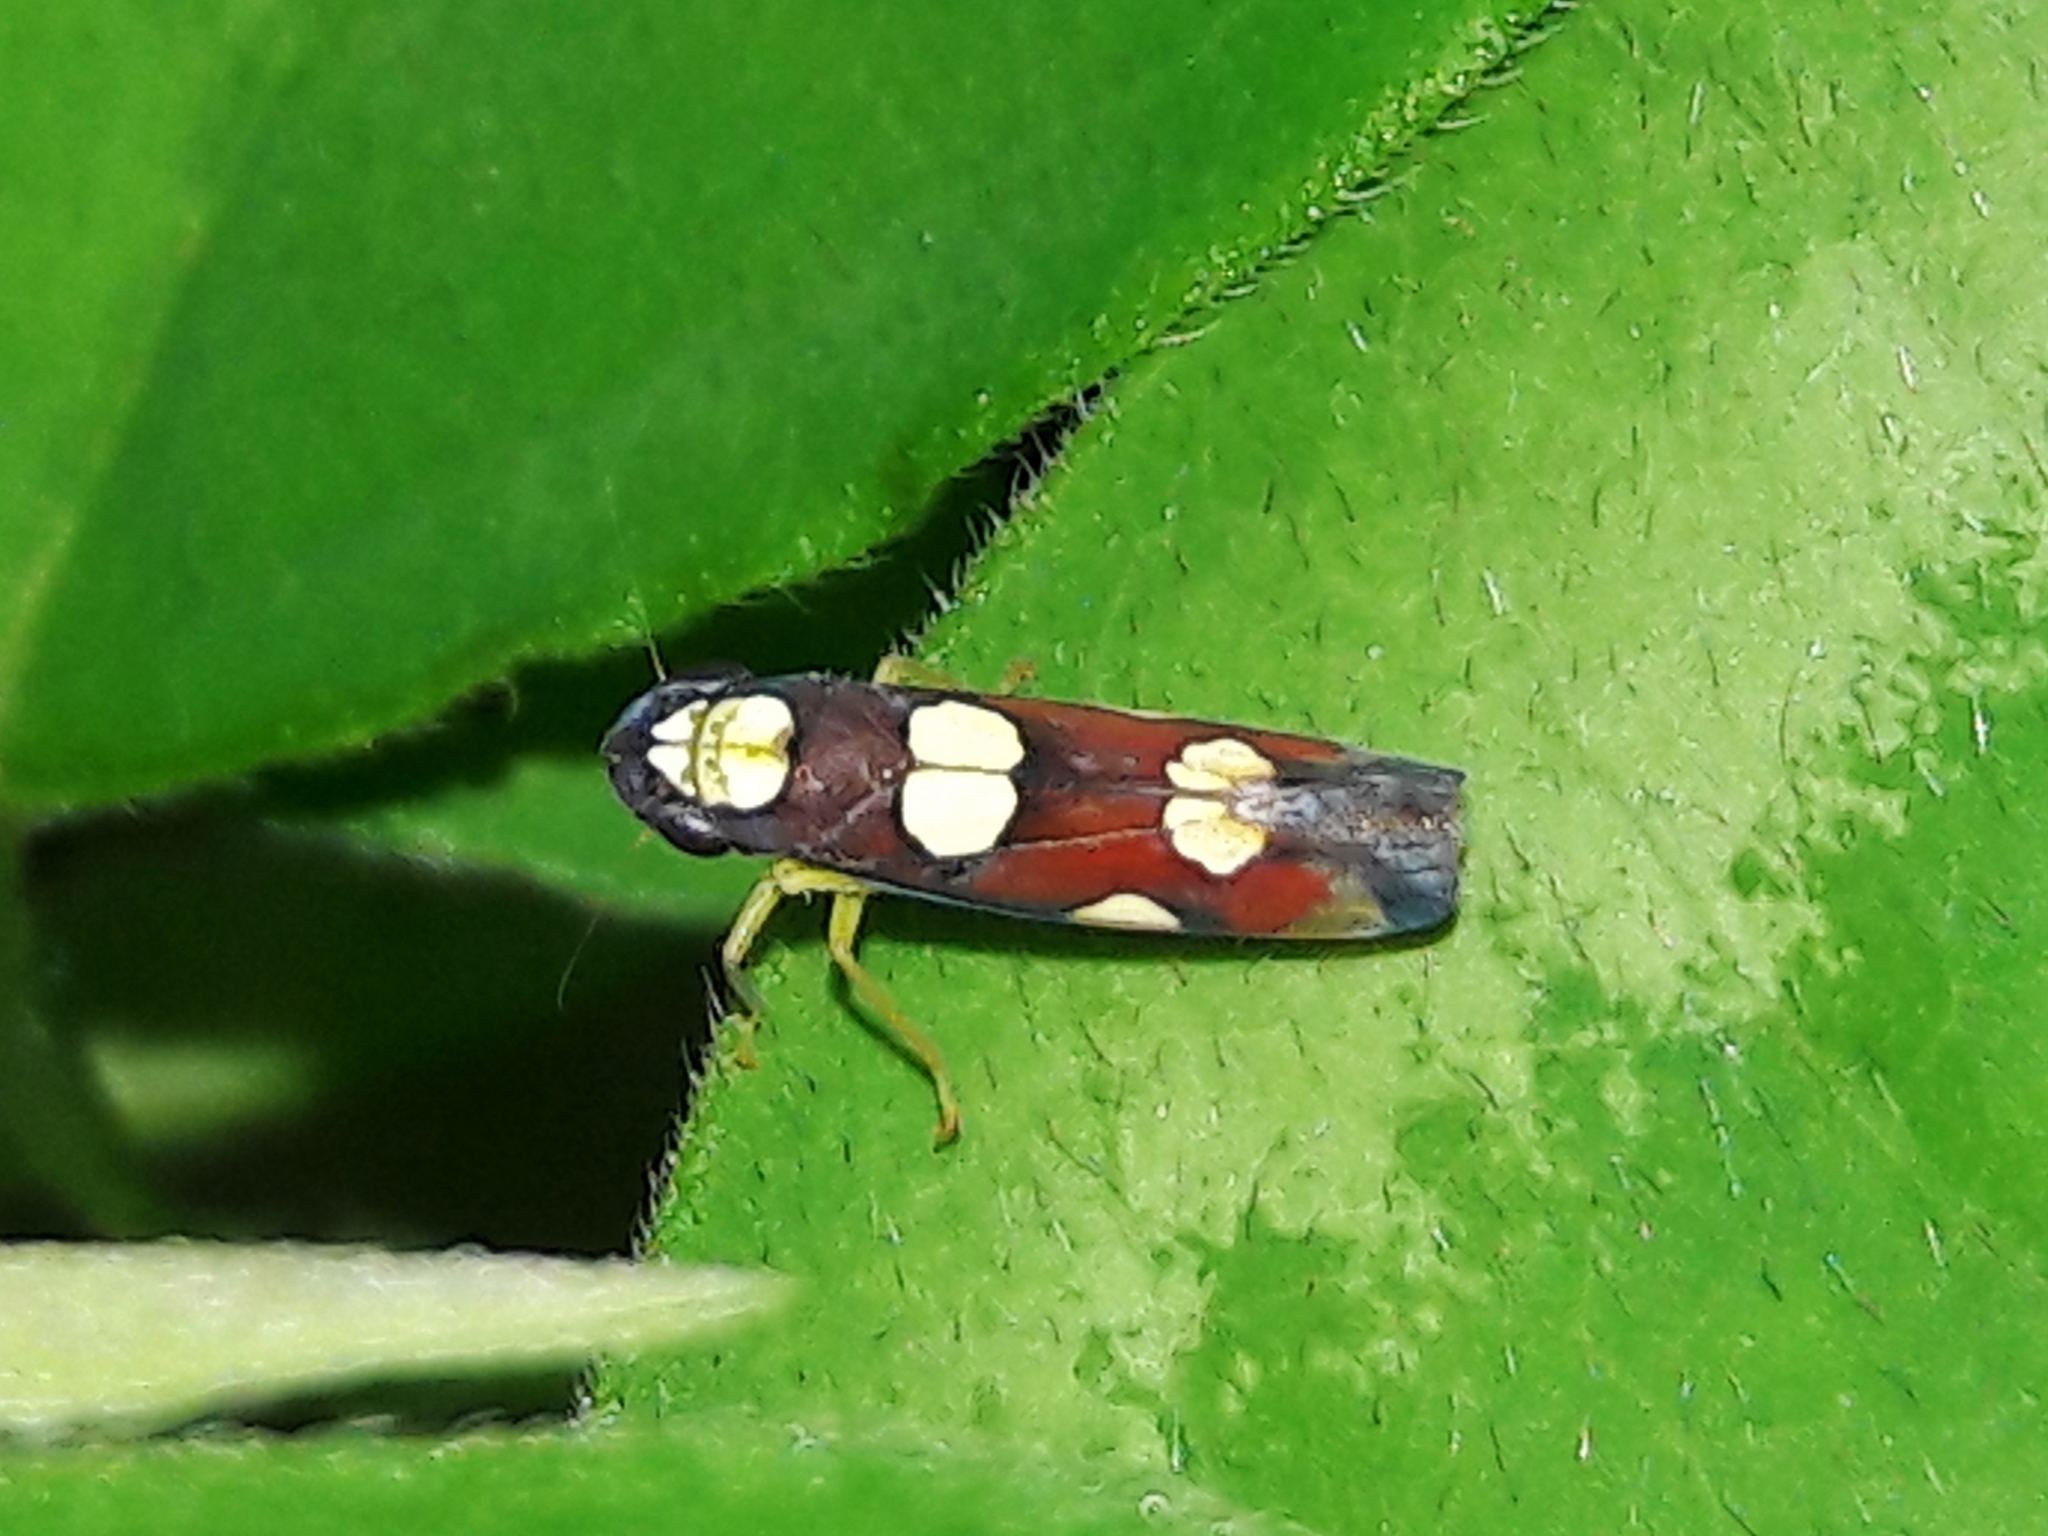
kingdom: Animalia
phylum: Arthropoda
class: Insecta
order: Hemiptera
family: Cicadellidae
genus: Erythrogonia
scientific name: Erythrogonia sexguttata
